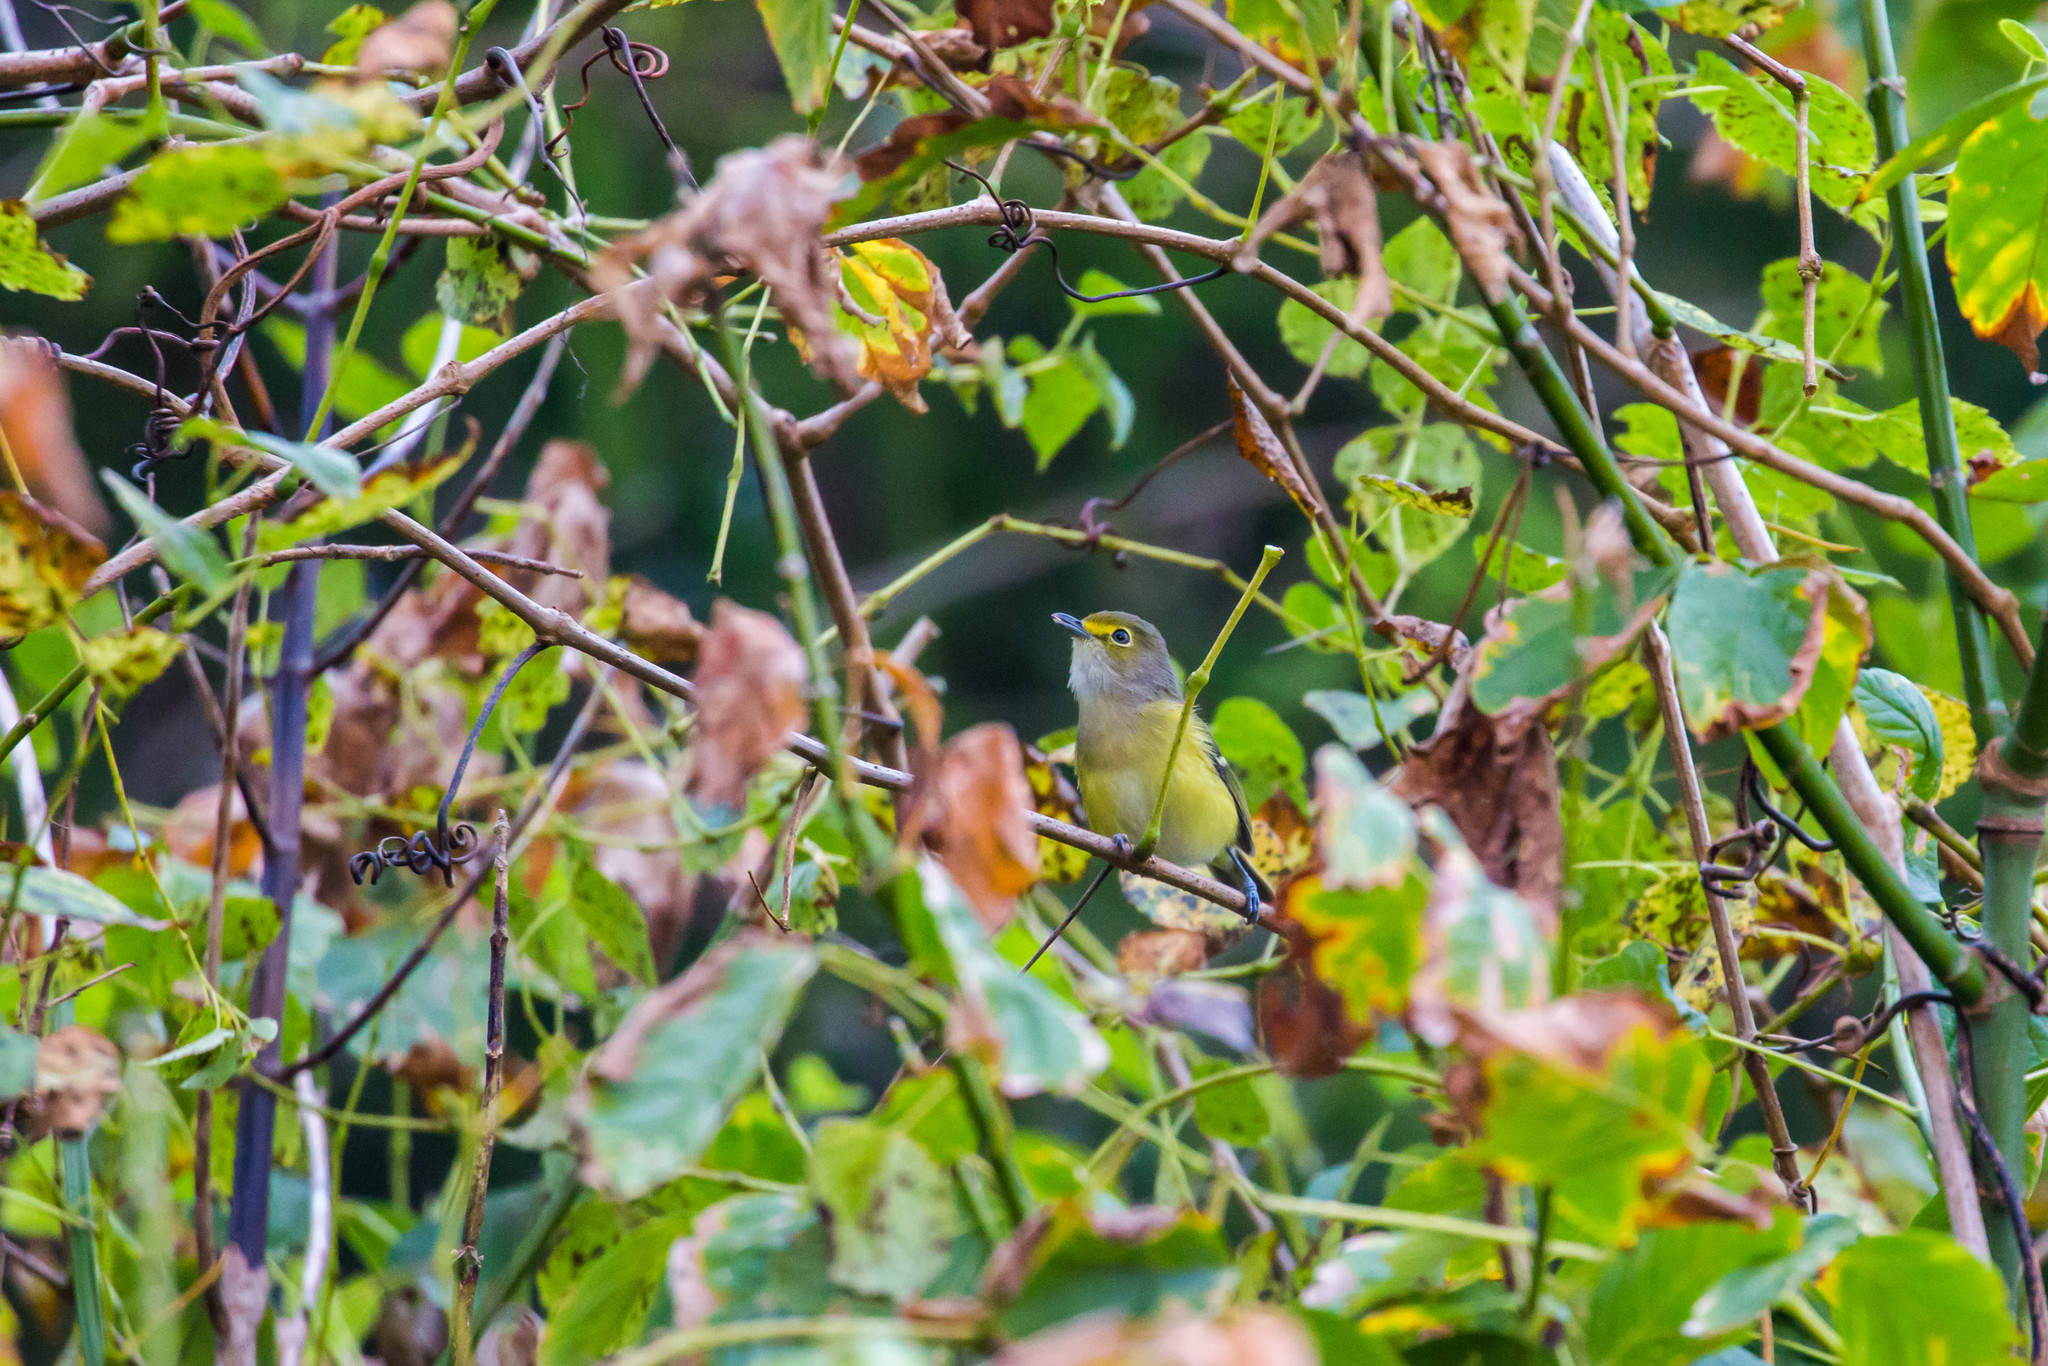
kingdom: Animalia
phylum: Chordata
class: Aves
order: Passeriformes
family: Vireonidae
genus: Vireo
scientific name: Vireo griseus
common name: White-eyed vireo
